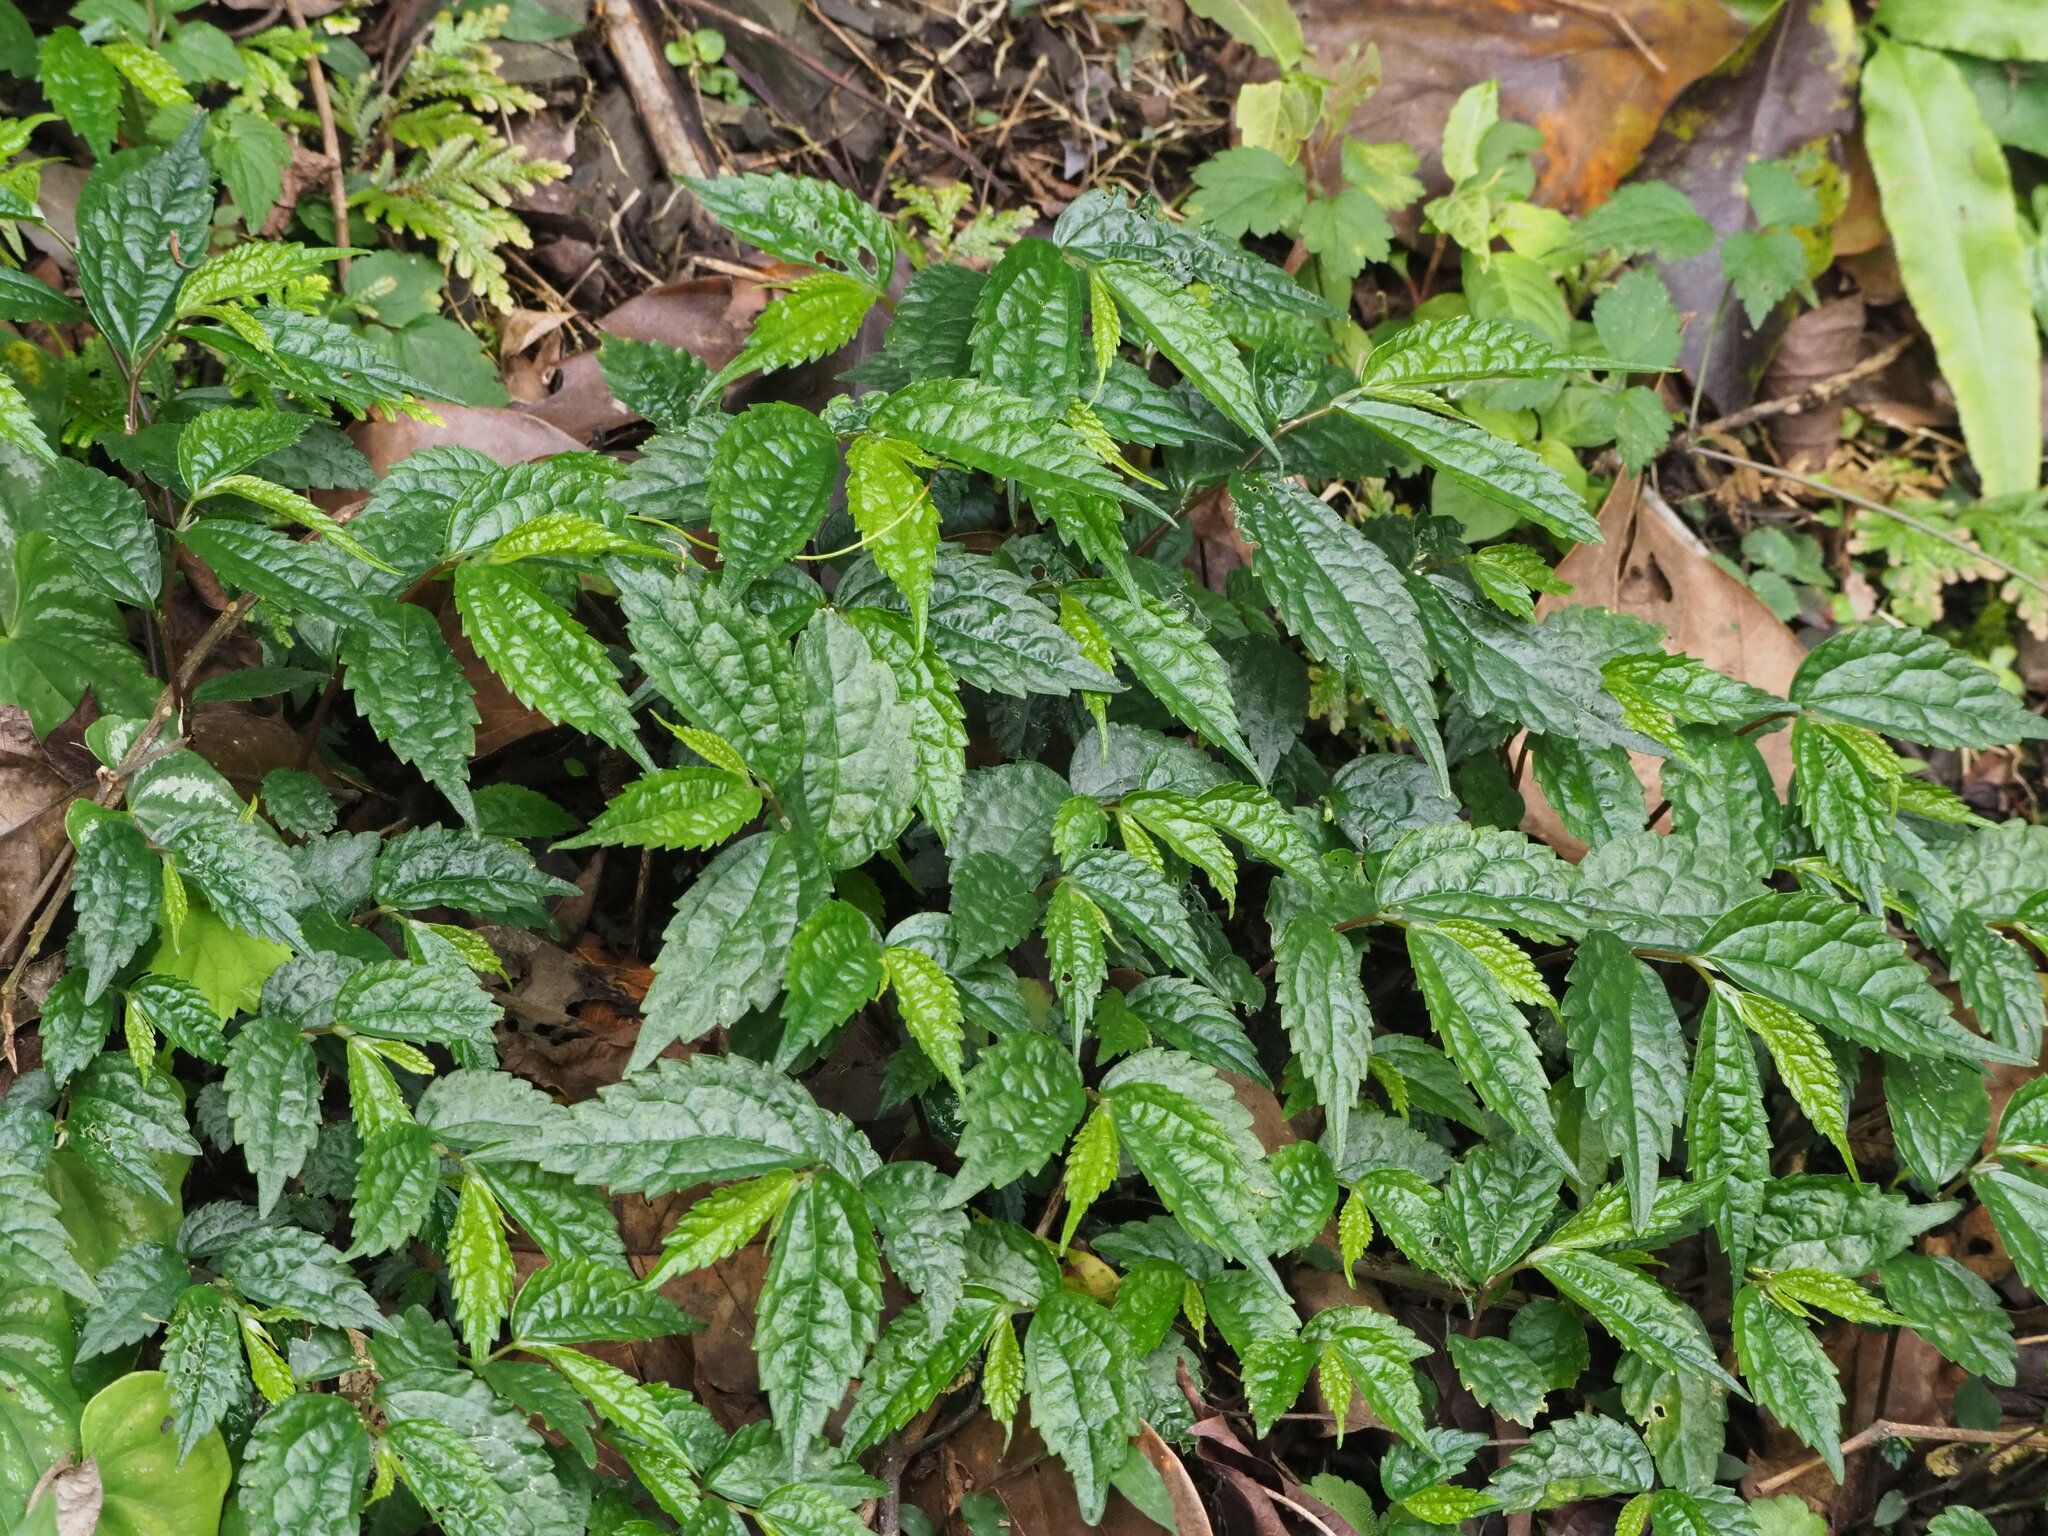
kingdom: Plantae
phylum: Tracheophyta
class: Magnoliopsida
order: Rosales
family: Urticaceae
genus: Elatostema
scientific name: Elatostema cyrtandrifolium
